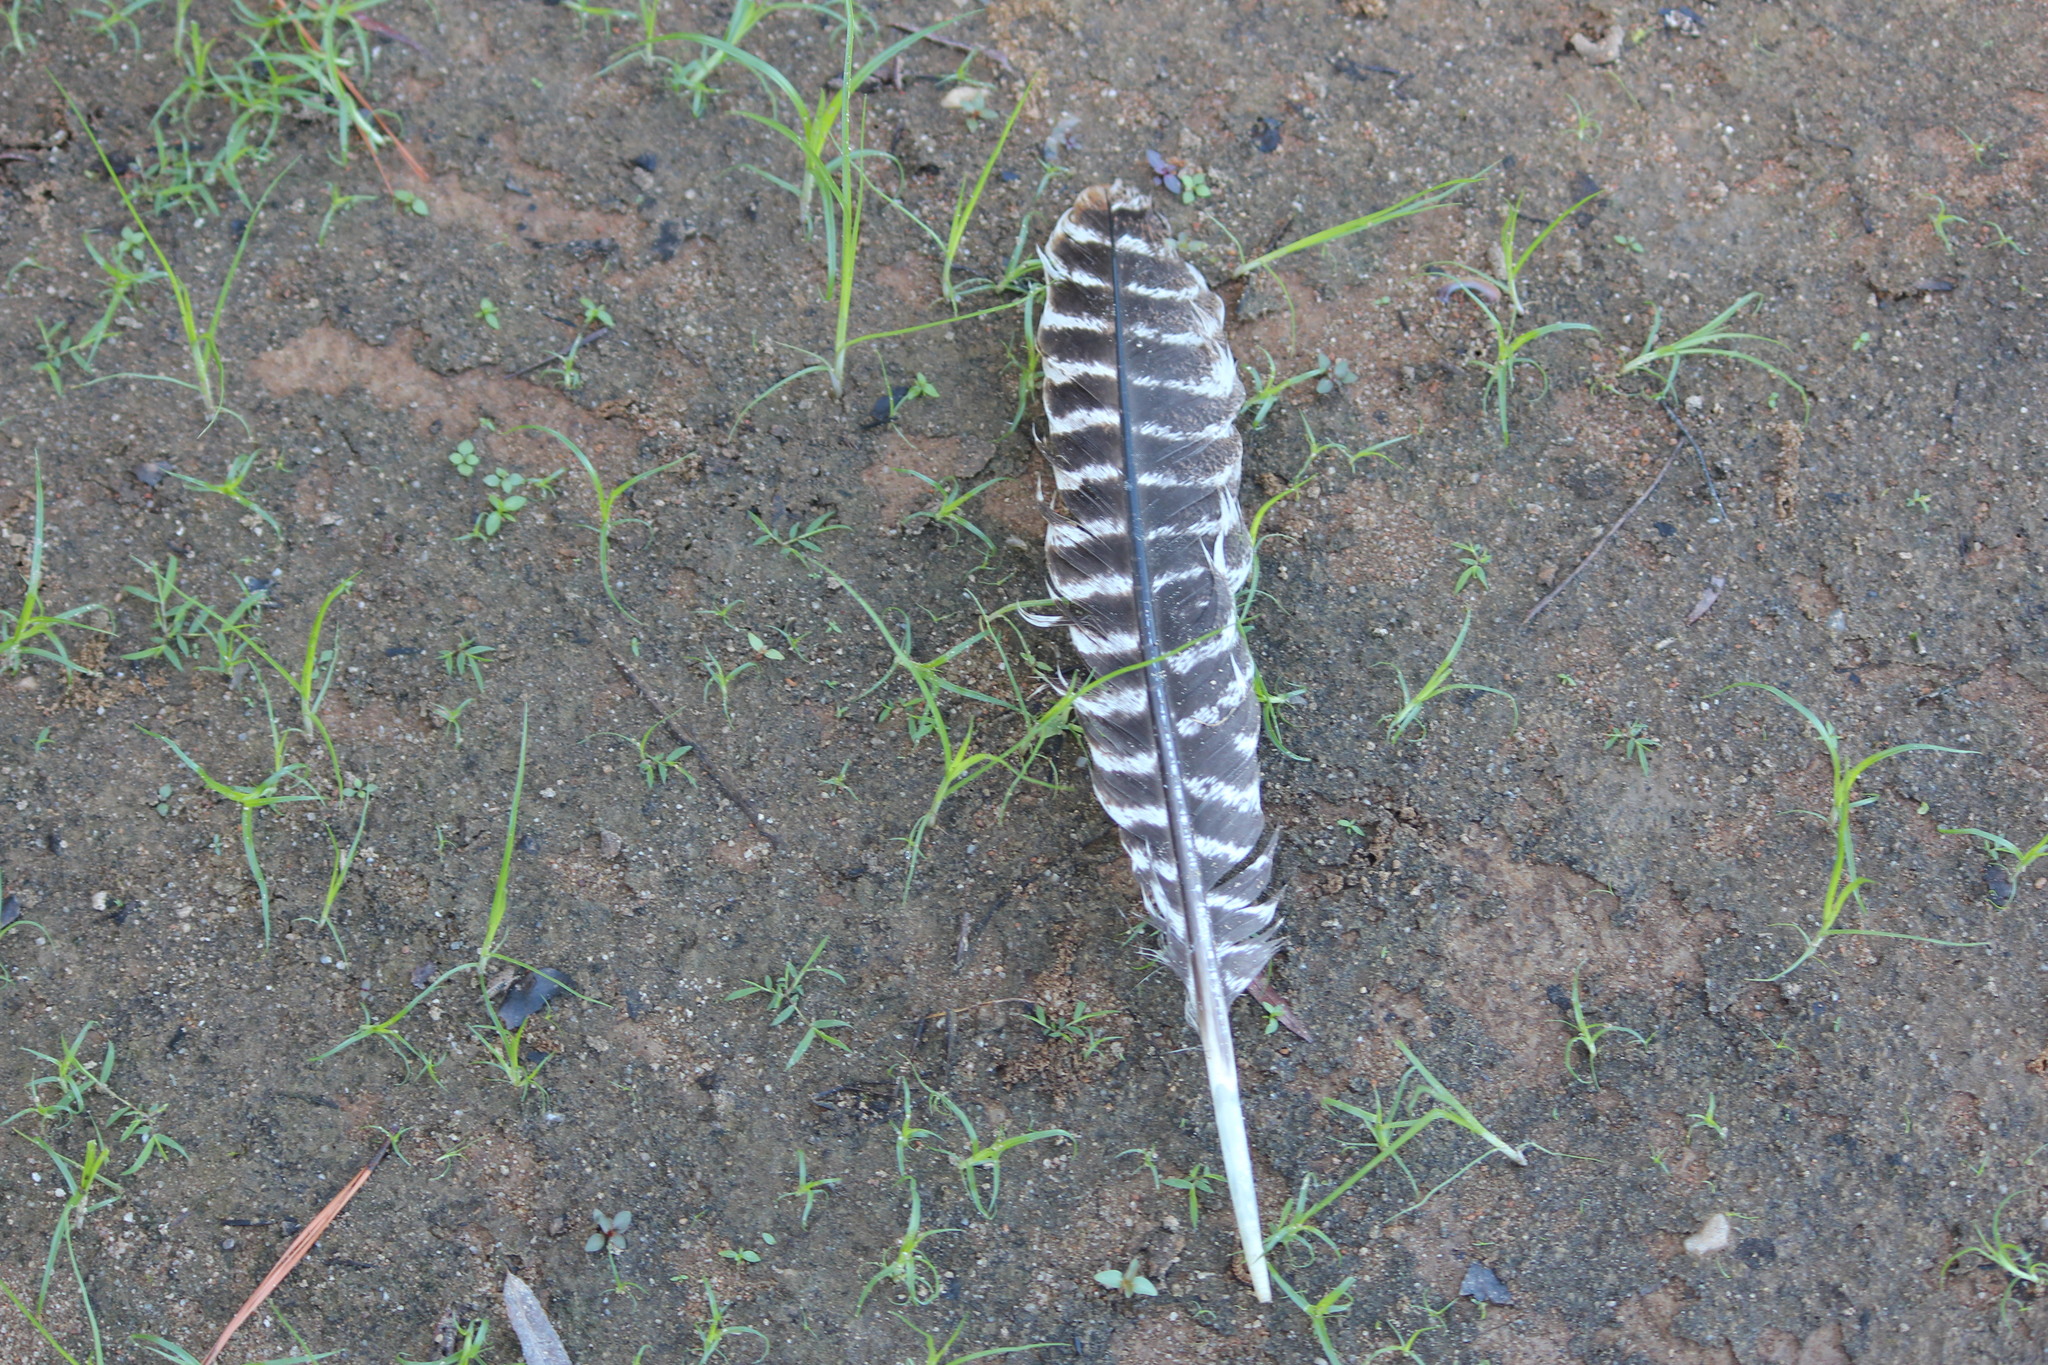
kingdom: Animalia
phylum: Chordata
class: Aves
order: Galliformes
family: Phasianidae
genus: Meleagris
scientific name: Meleagris gallopavo
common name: Wild turkey
